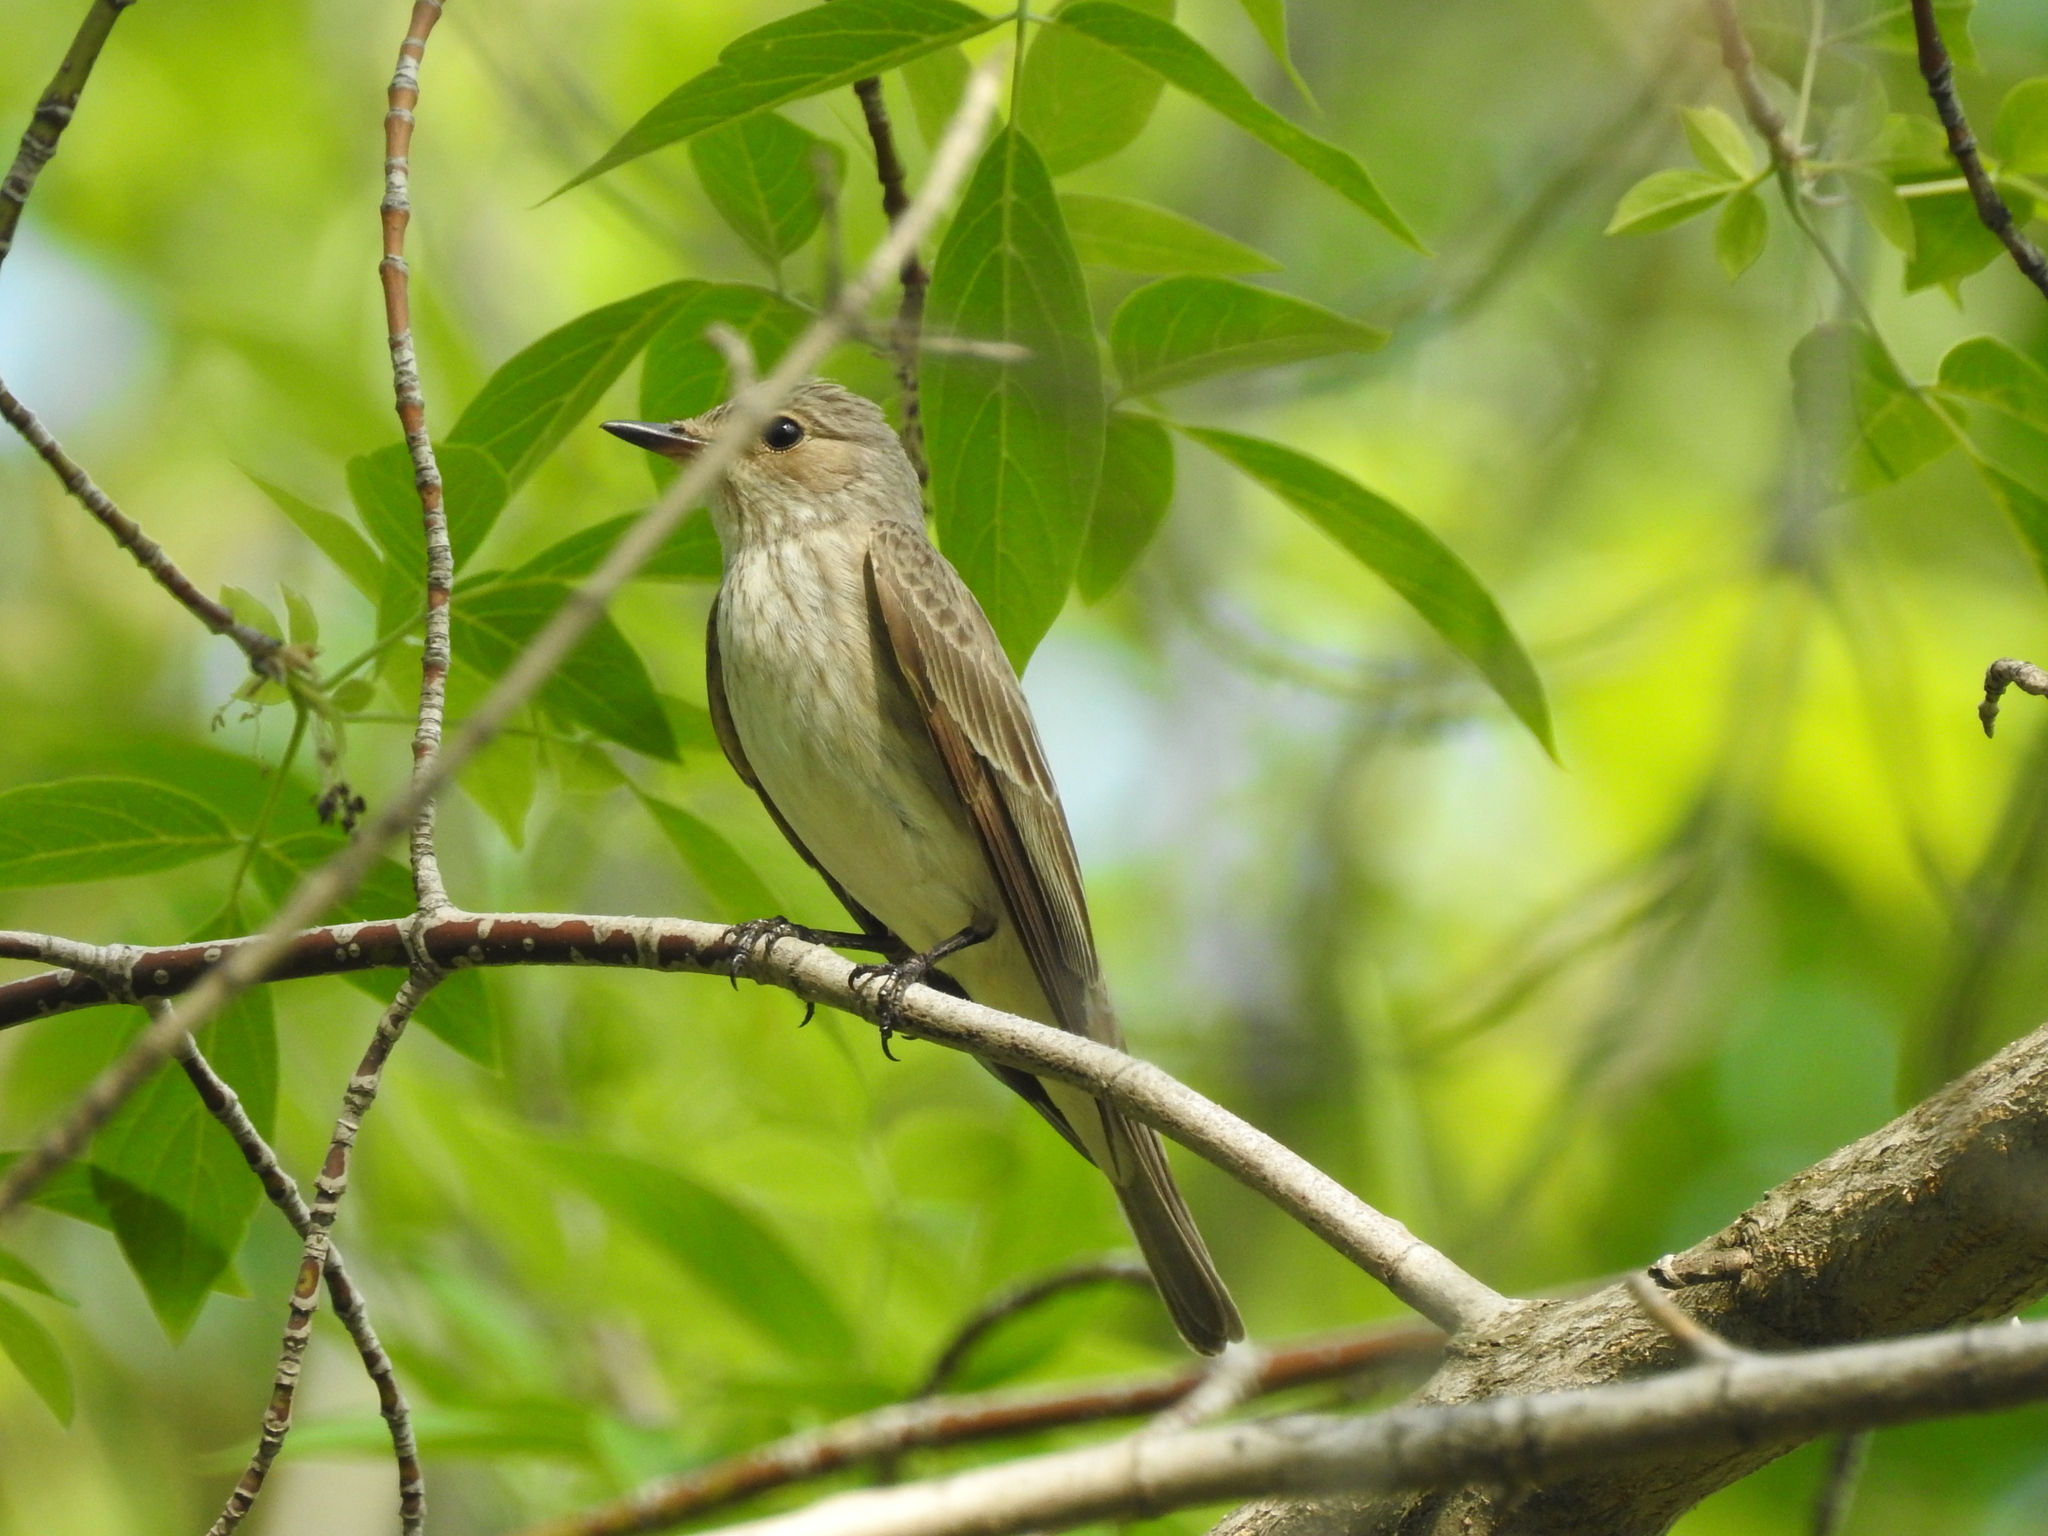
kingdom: Animalia
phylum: Chordata
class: Aves
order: Passeriformes
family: Muscicapidae
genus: Muscicapa
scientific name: Muscicapa striata
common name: Spotted flycatcher
